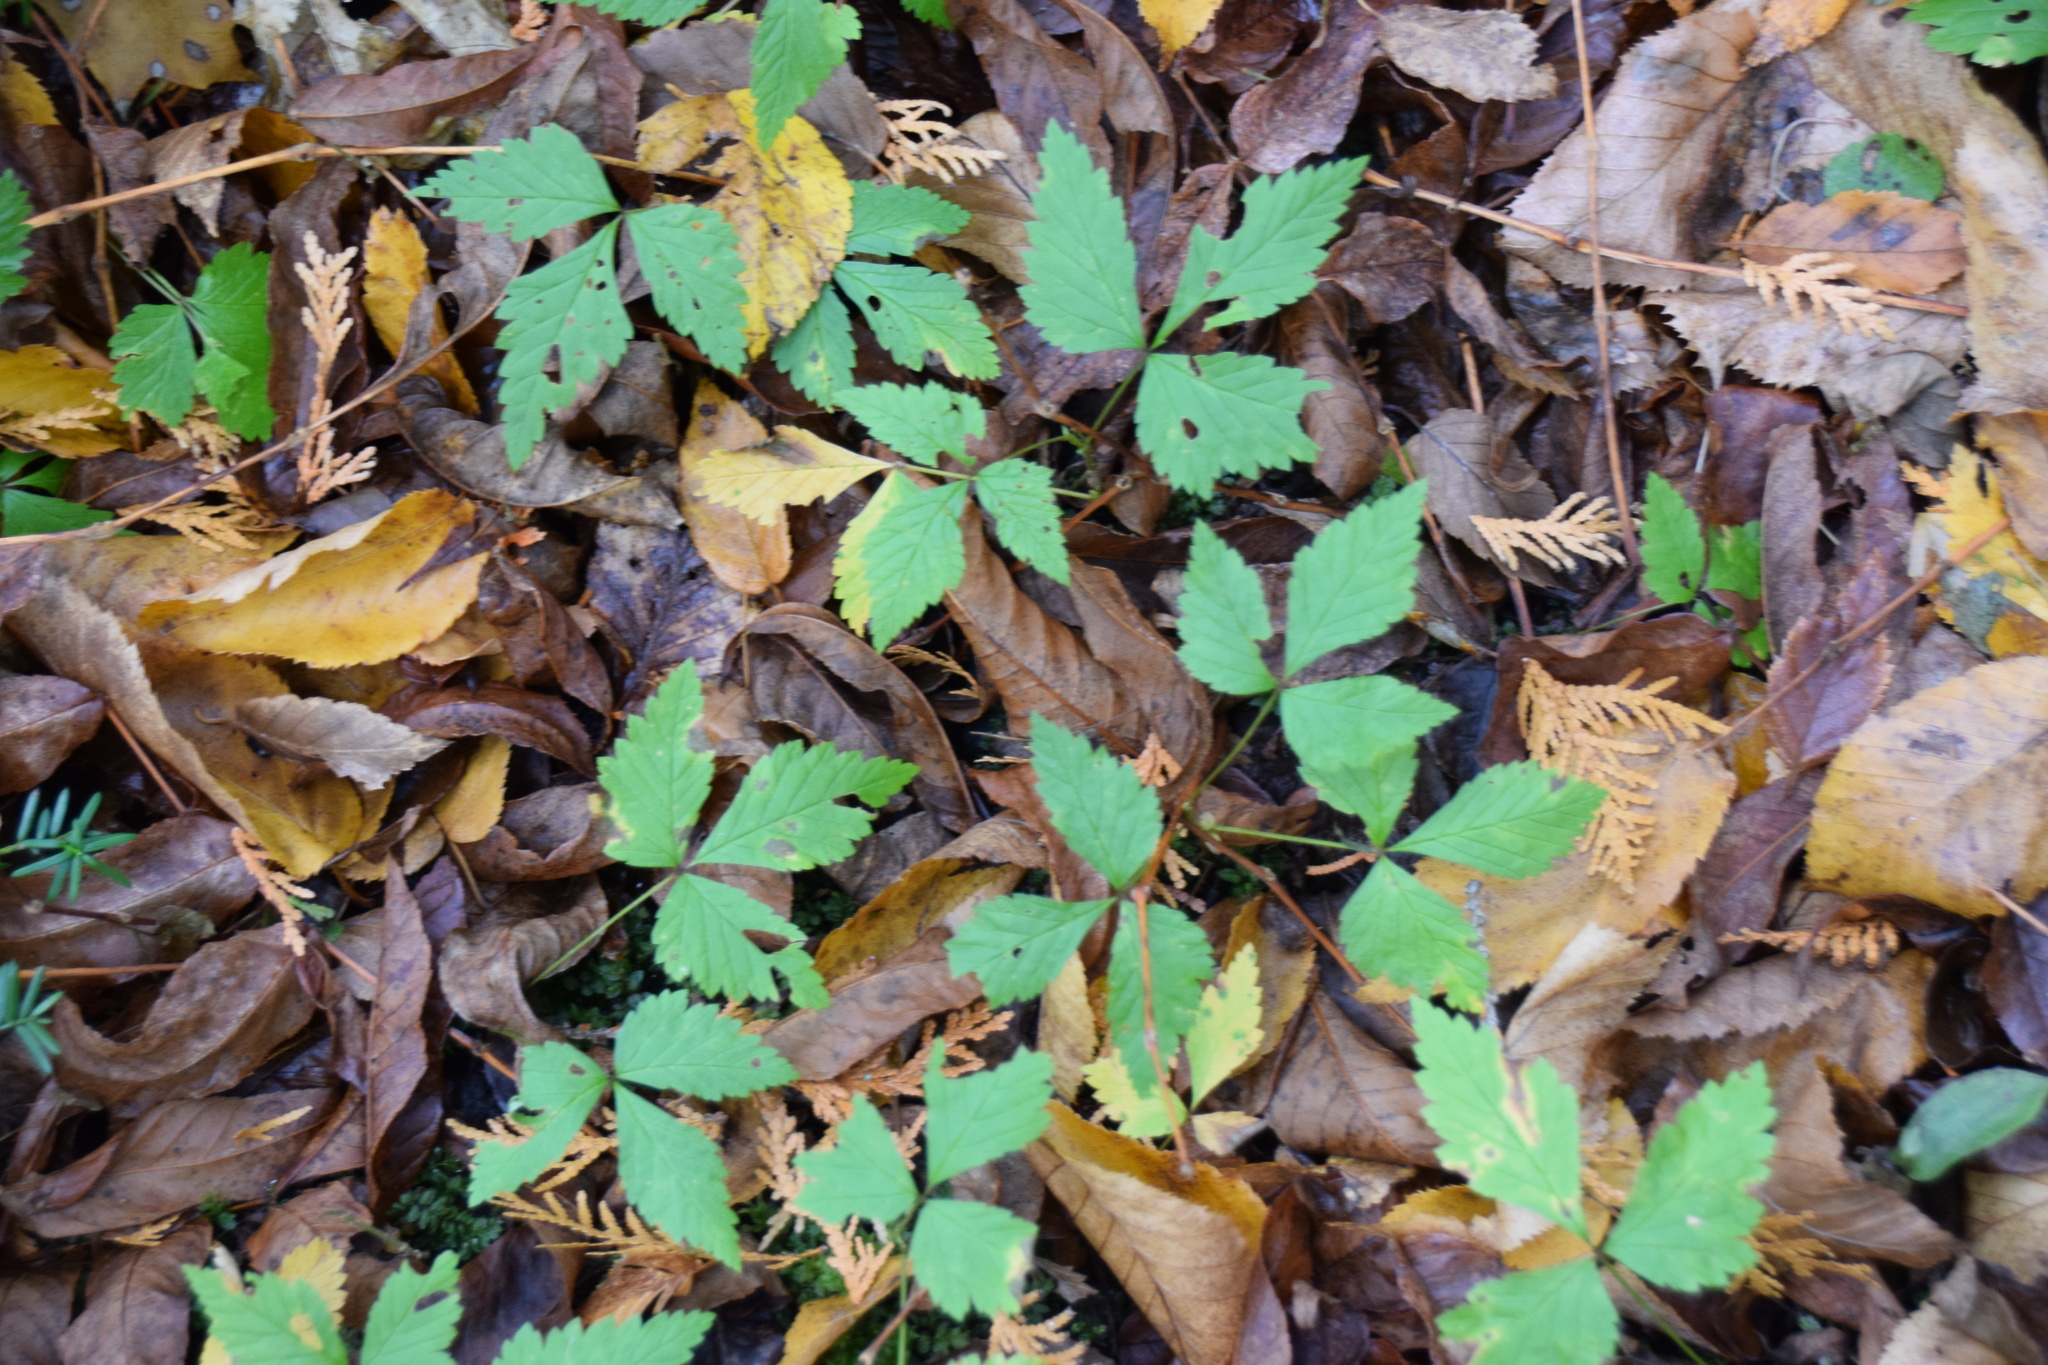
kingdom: Plantae
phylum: Tracheophyta
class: Magnoliopsida
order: Rosales
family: Rosaceae
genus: Rubus
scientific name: Rubus pubescens
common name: Dwarf raspberry
